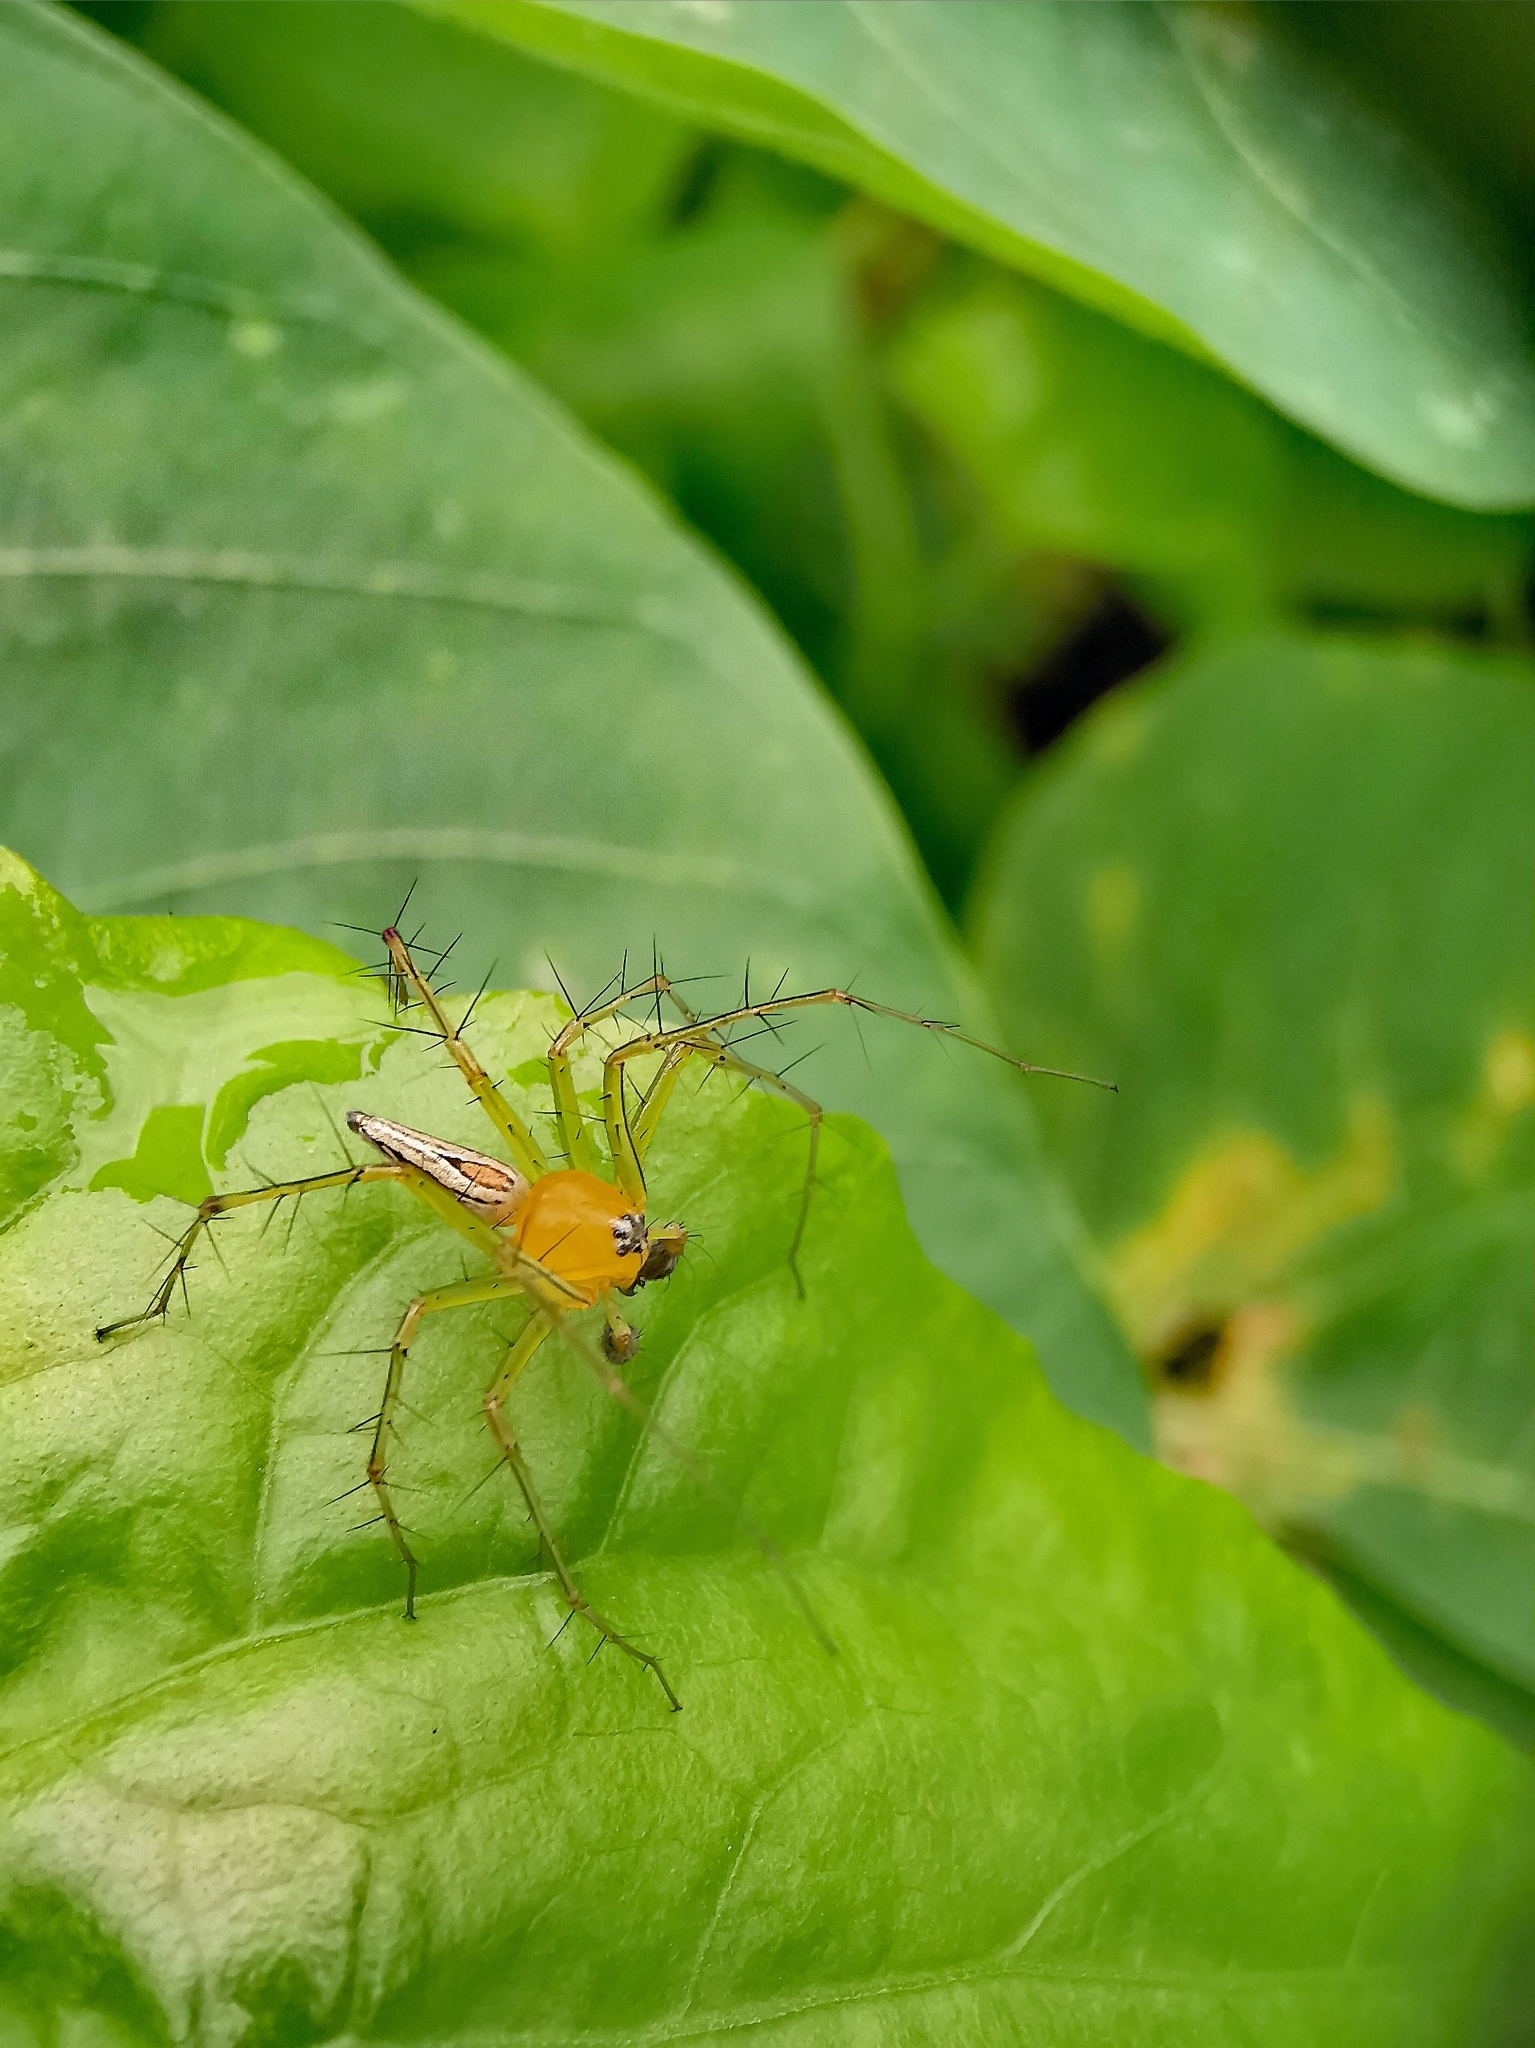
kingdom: Animalia
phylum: Arthropoda
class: Arachnida
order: Araneae
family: Oxyopidae
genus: Oxyopes
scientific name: Oxyopes
